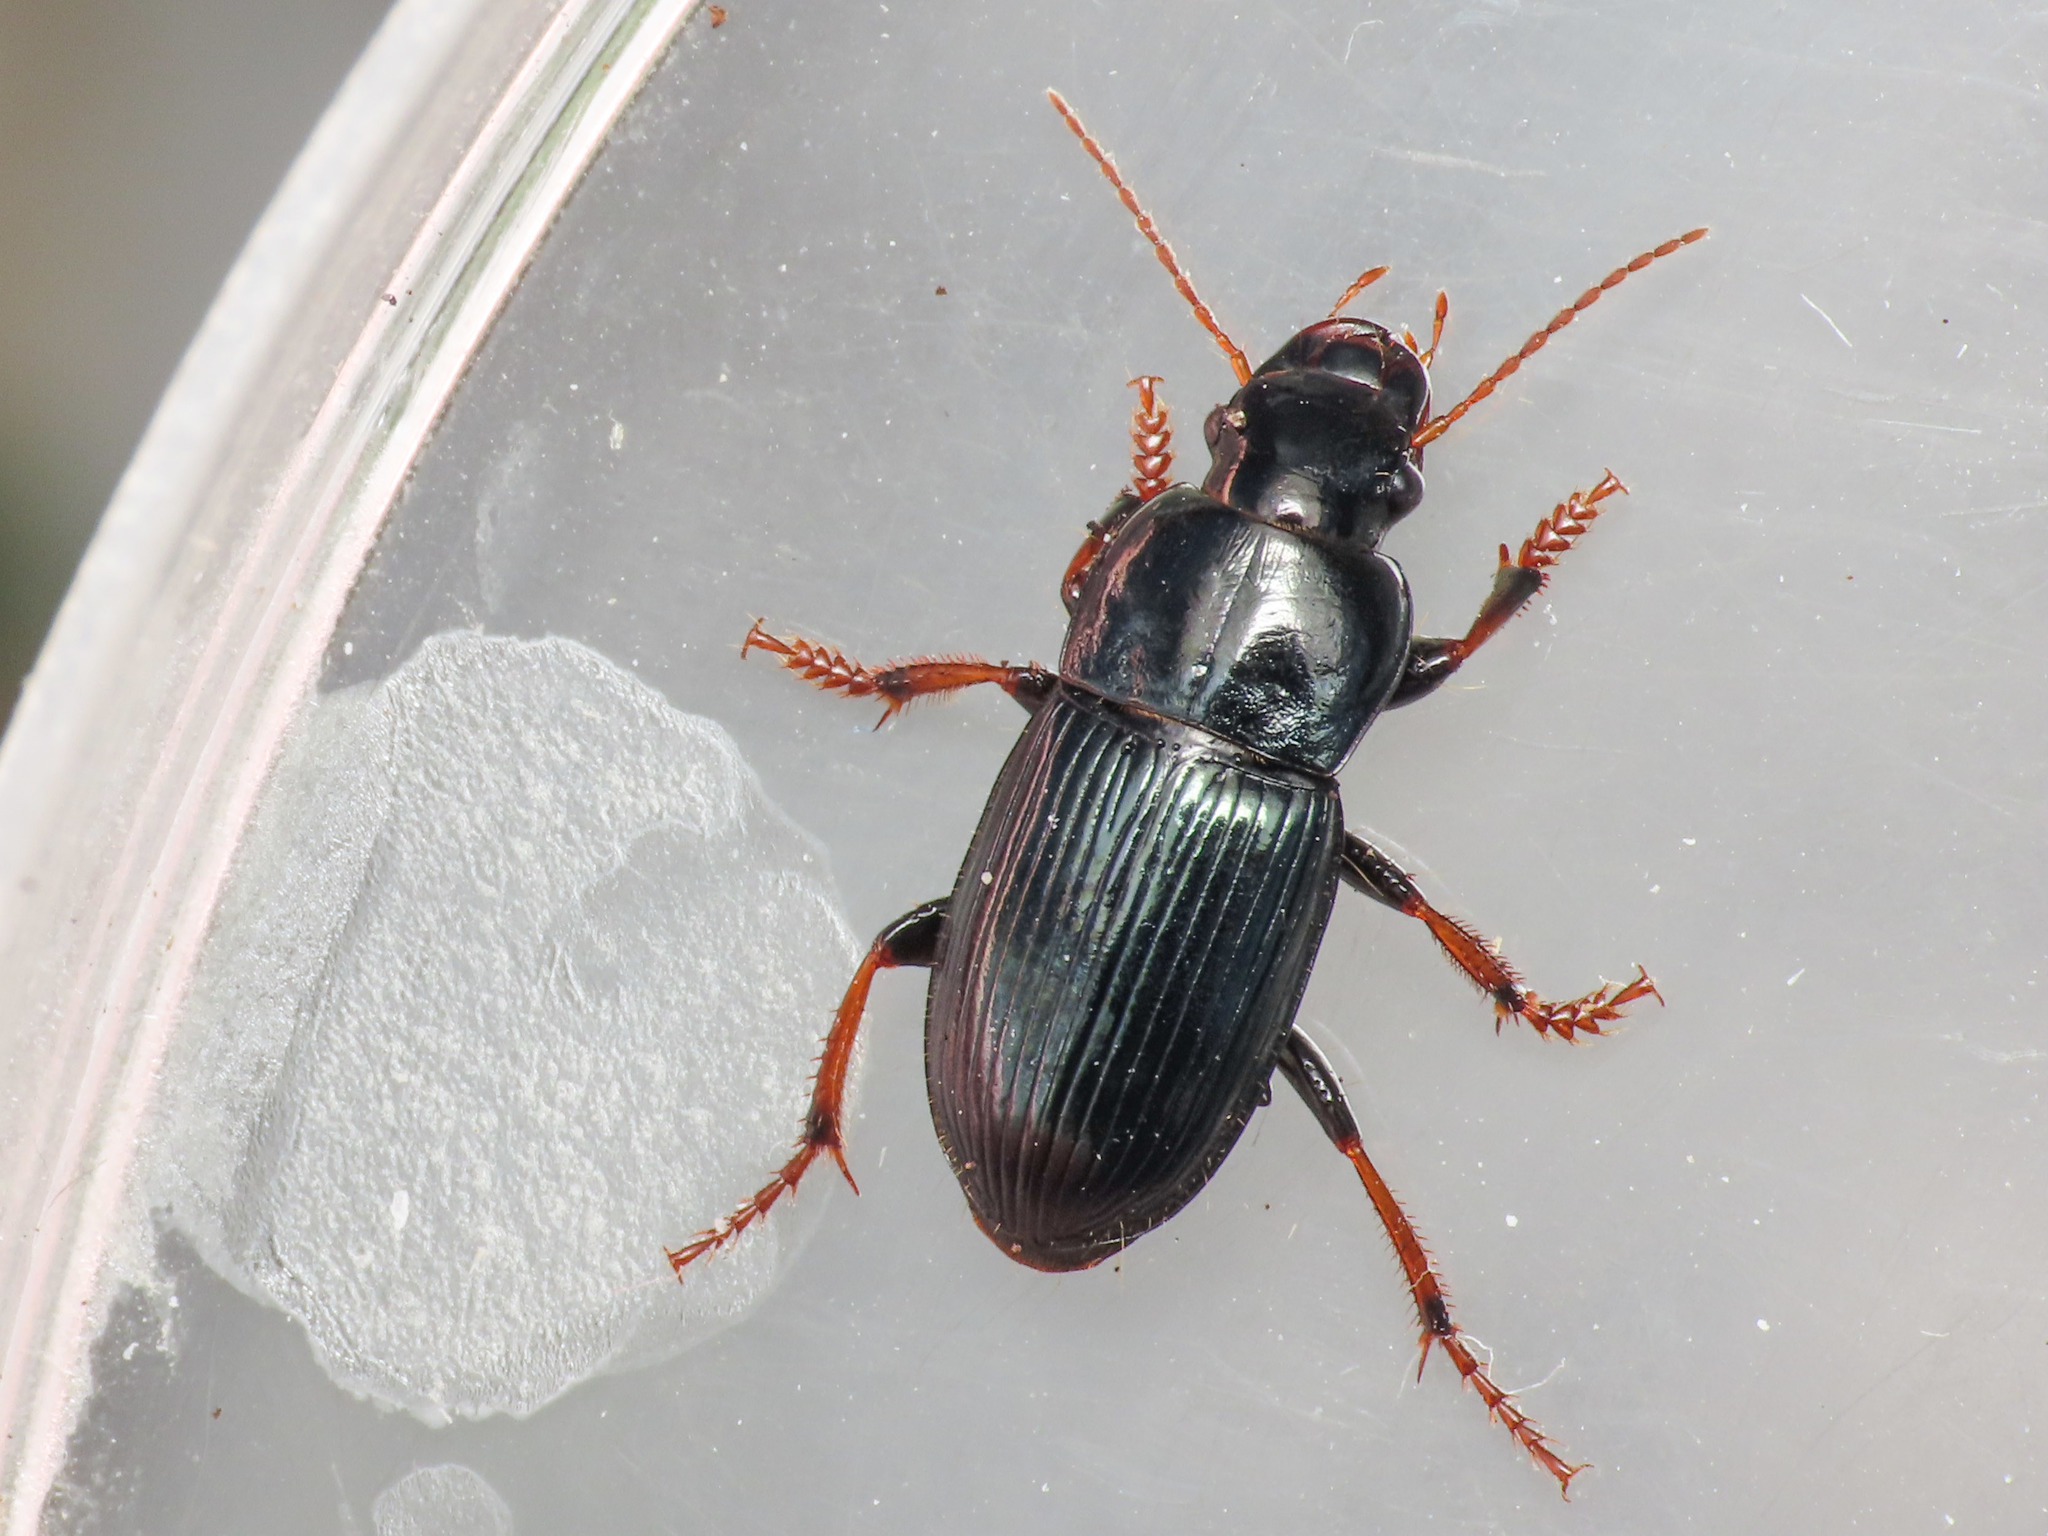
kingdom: Animalia
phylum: Arthropoda
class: Insecta
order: Coleoptera
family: Carabidae
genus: Harpalus
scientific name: Harpalus rubripes
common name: Red-legged harp ground beetle
